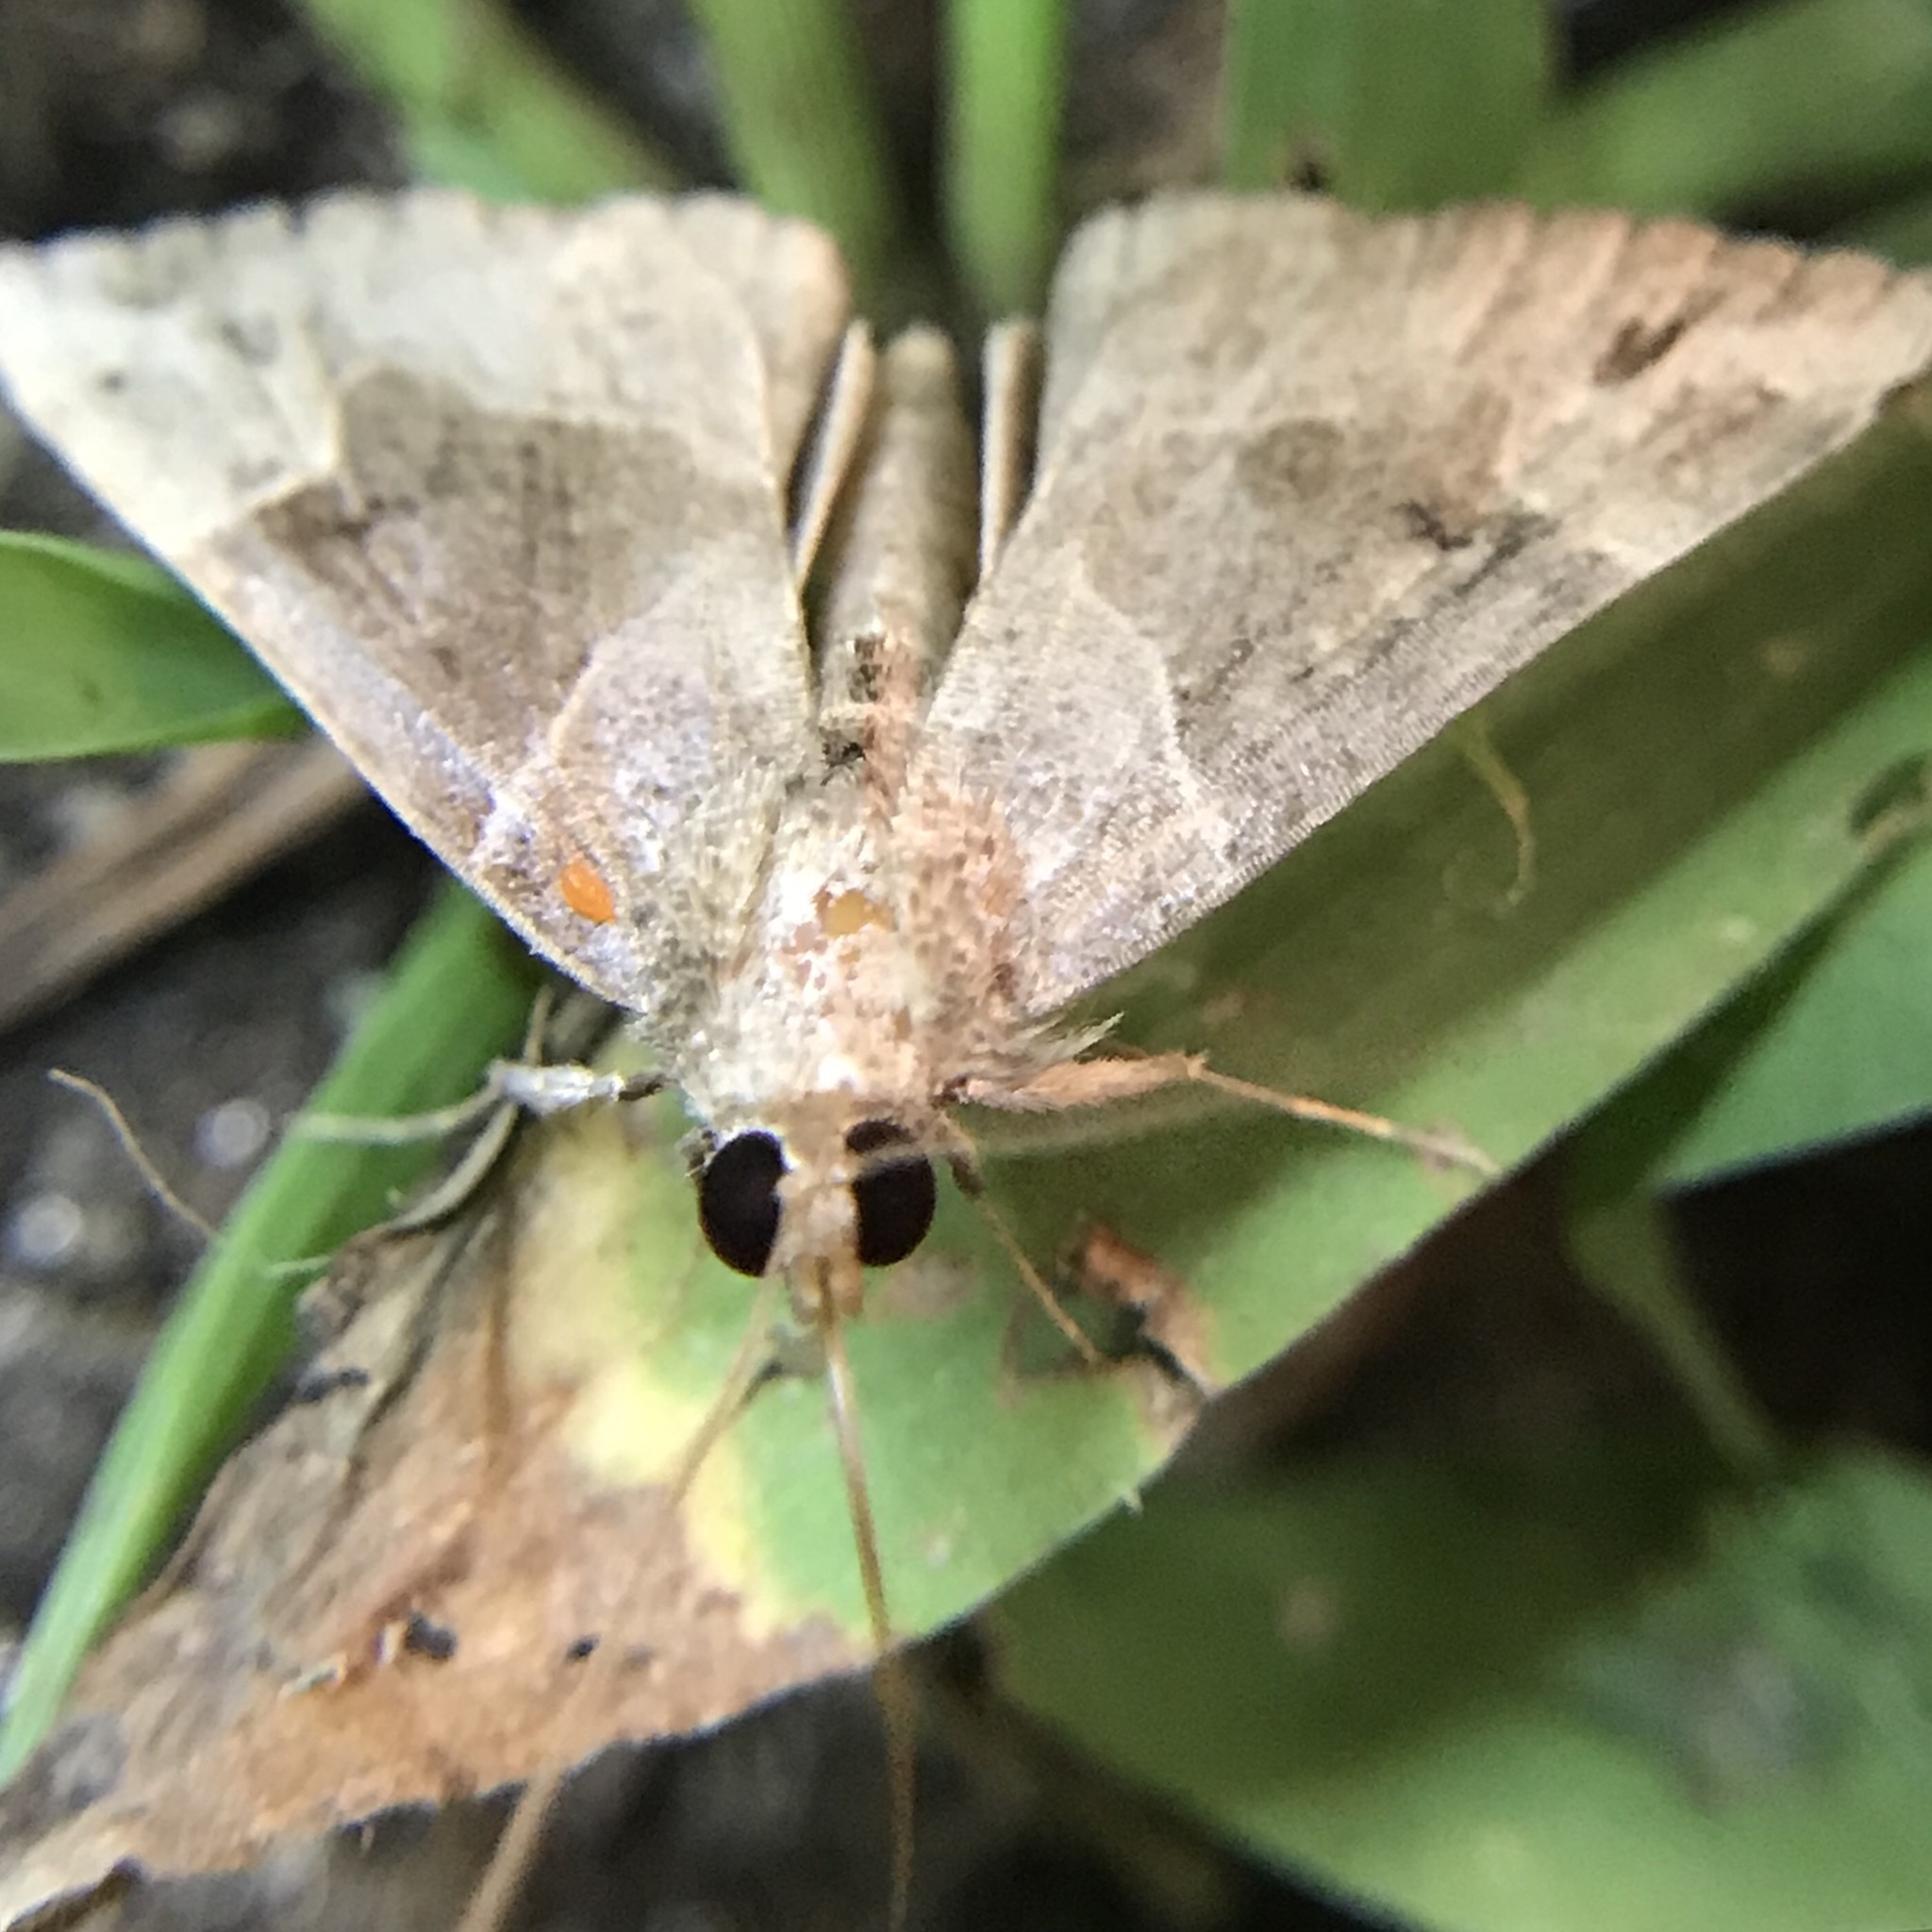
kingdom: Animalia
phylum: Arthropoda
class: Insecta
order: Lepidoptera
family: Erebidae
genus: Hypena
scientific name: Hypena manalis
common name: Flowing-line bomolocha moth
